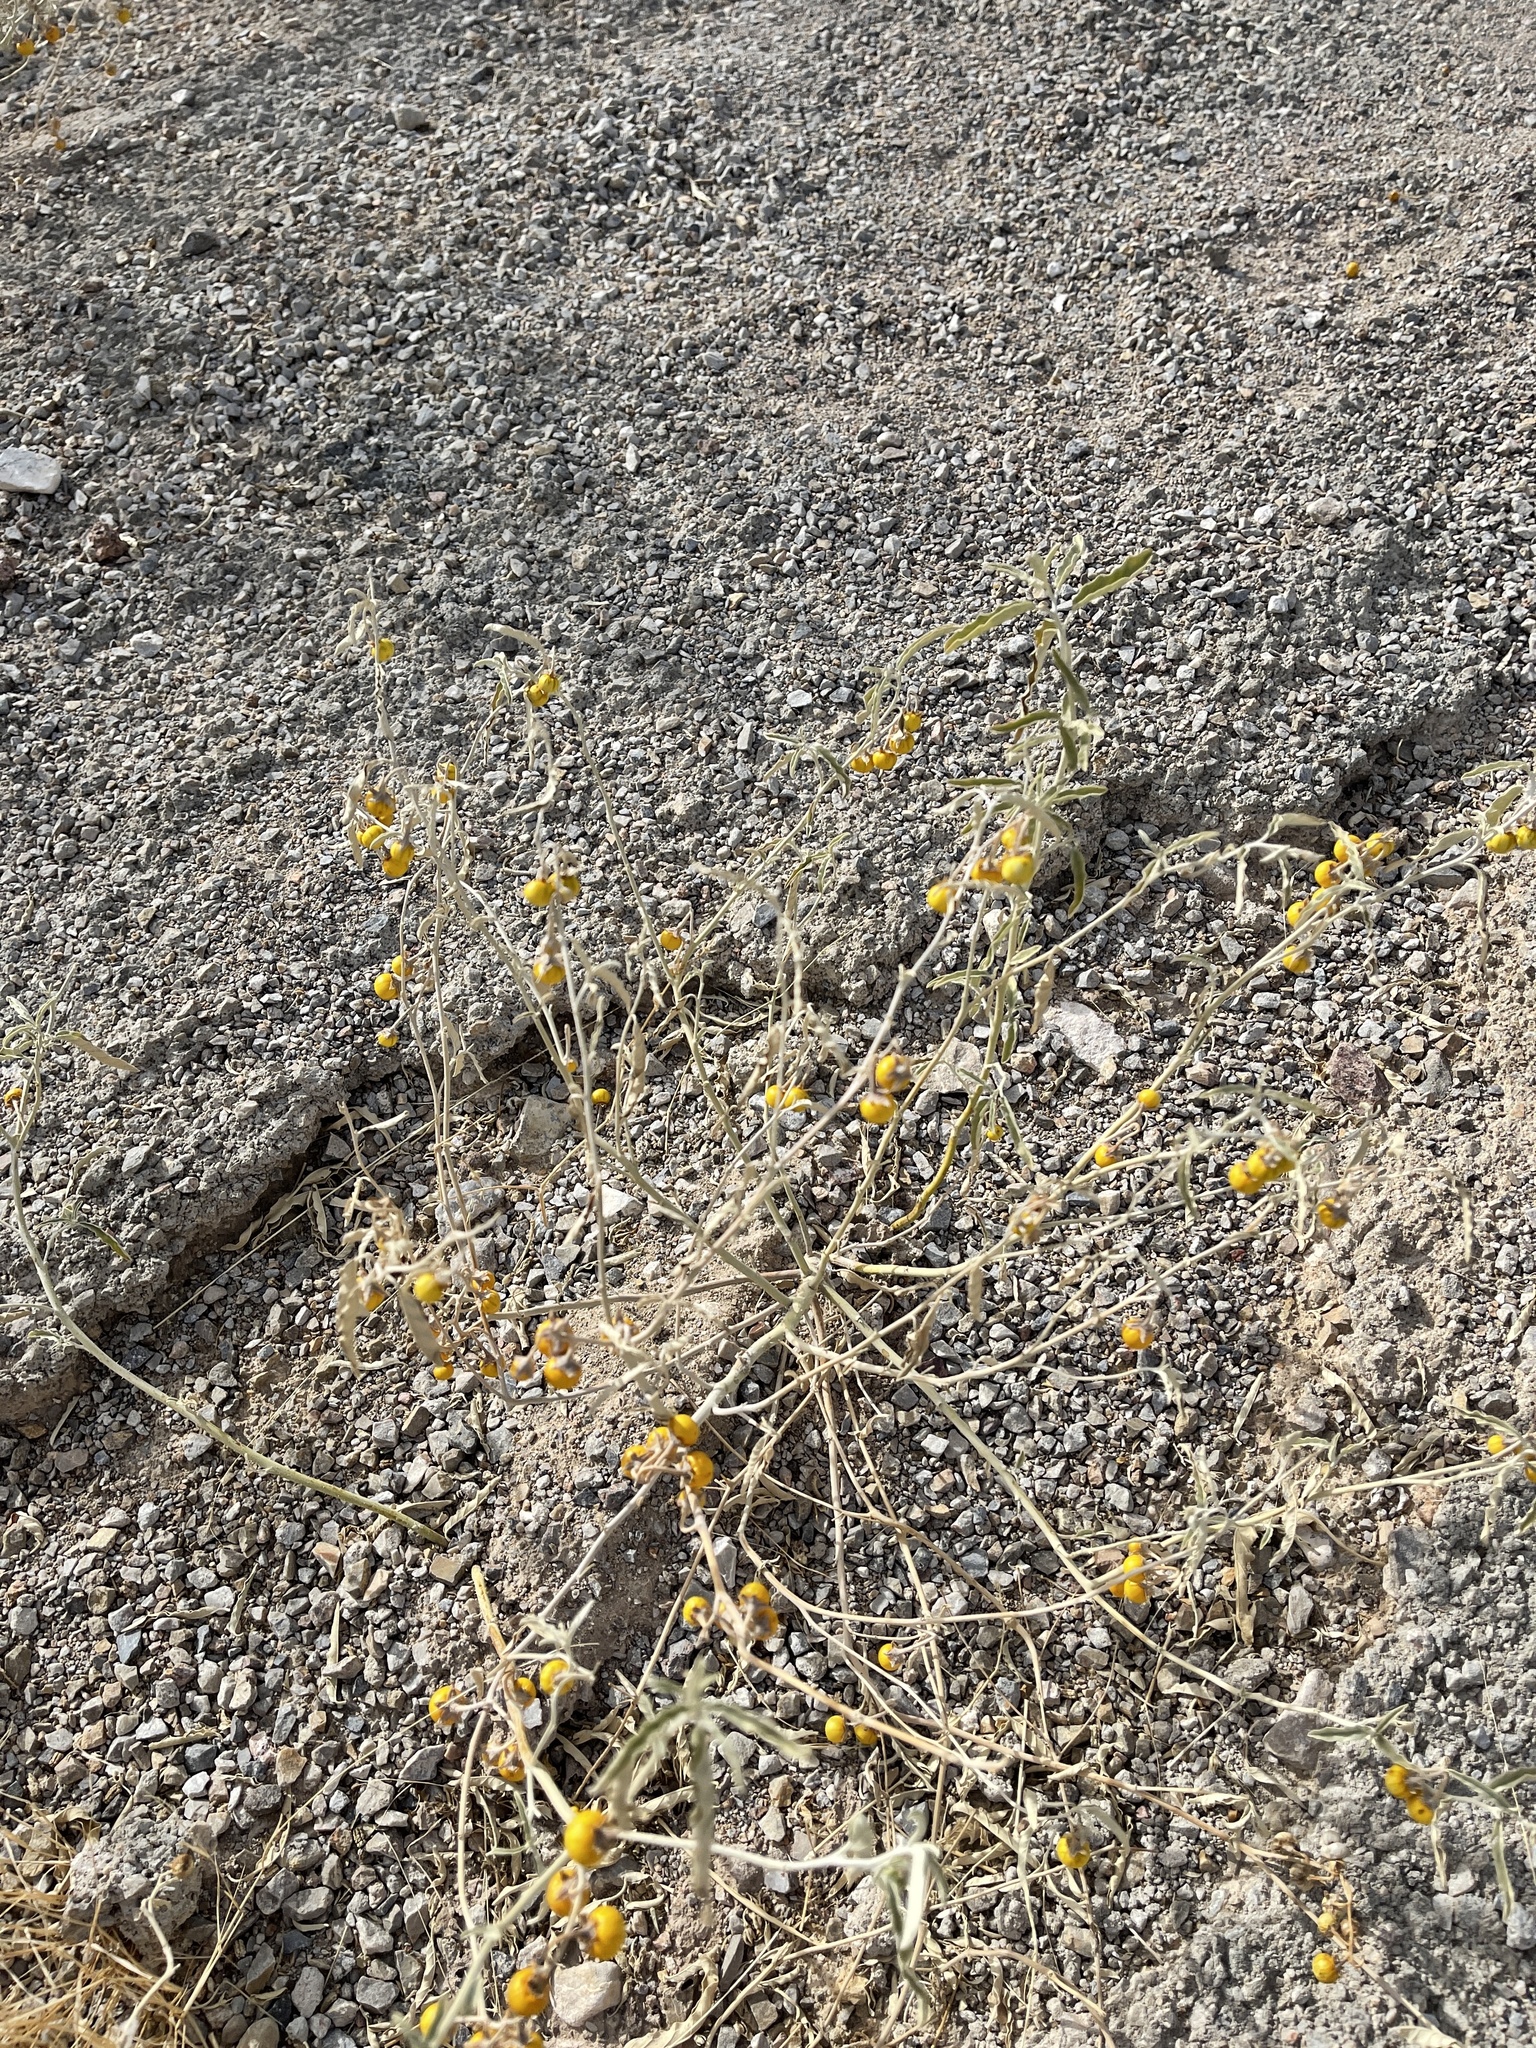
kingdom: Plantae
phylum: Tracheophyta
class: Magnoliopsida
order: Solanales
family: Solanaceae
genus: Solanum
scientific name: Solanum elaeagnifolium
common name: Silverleaf nightshade
